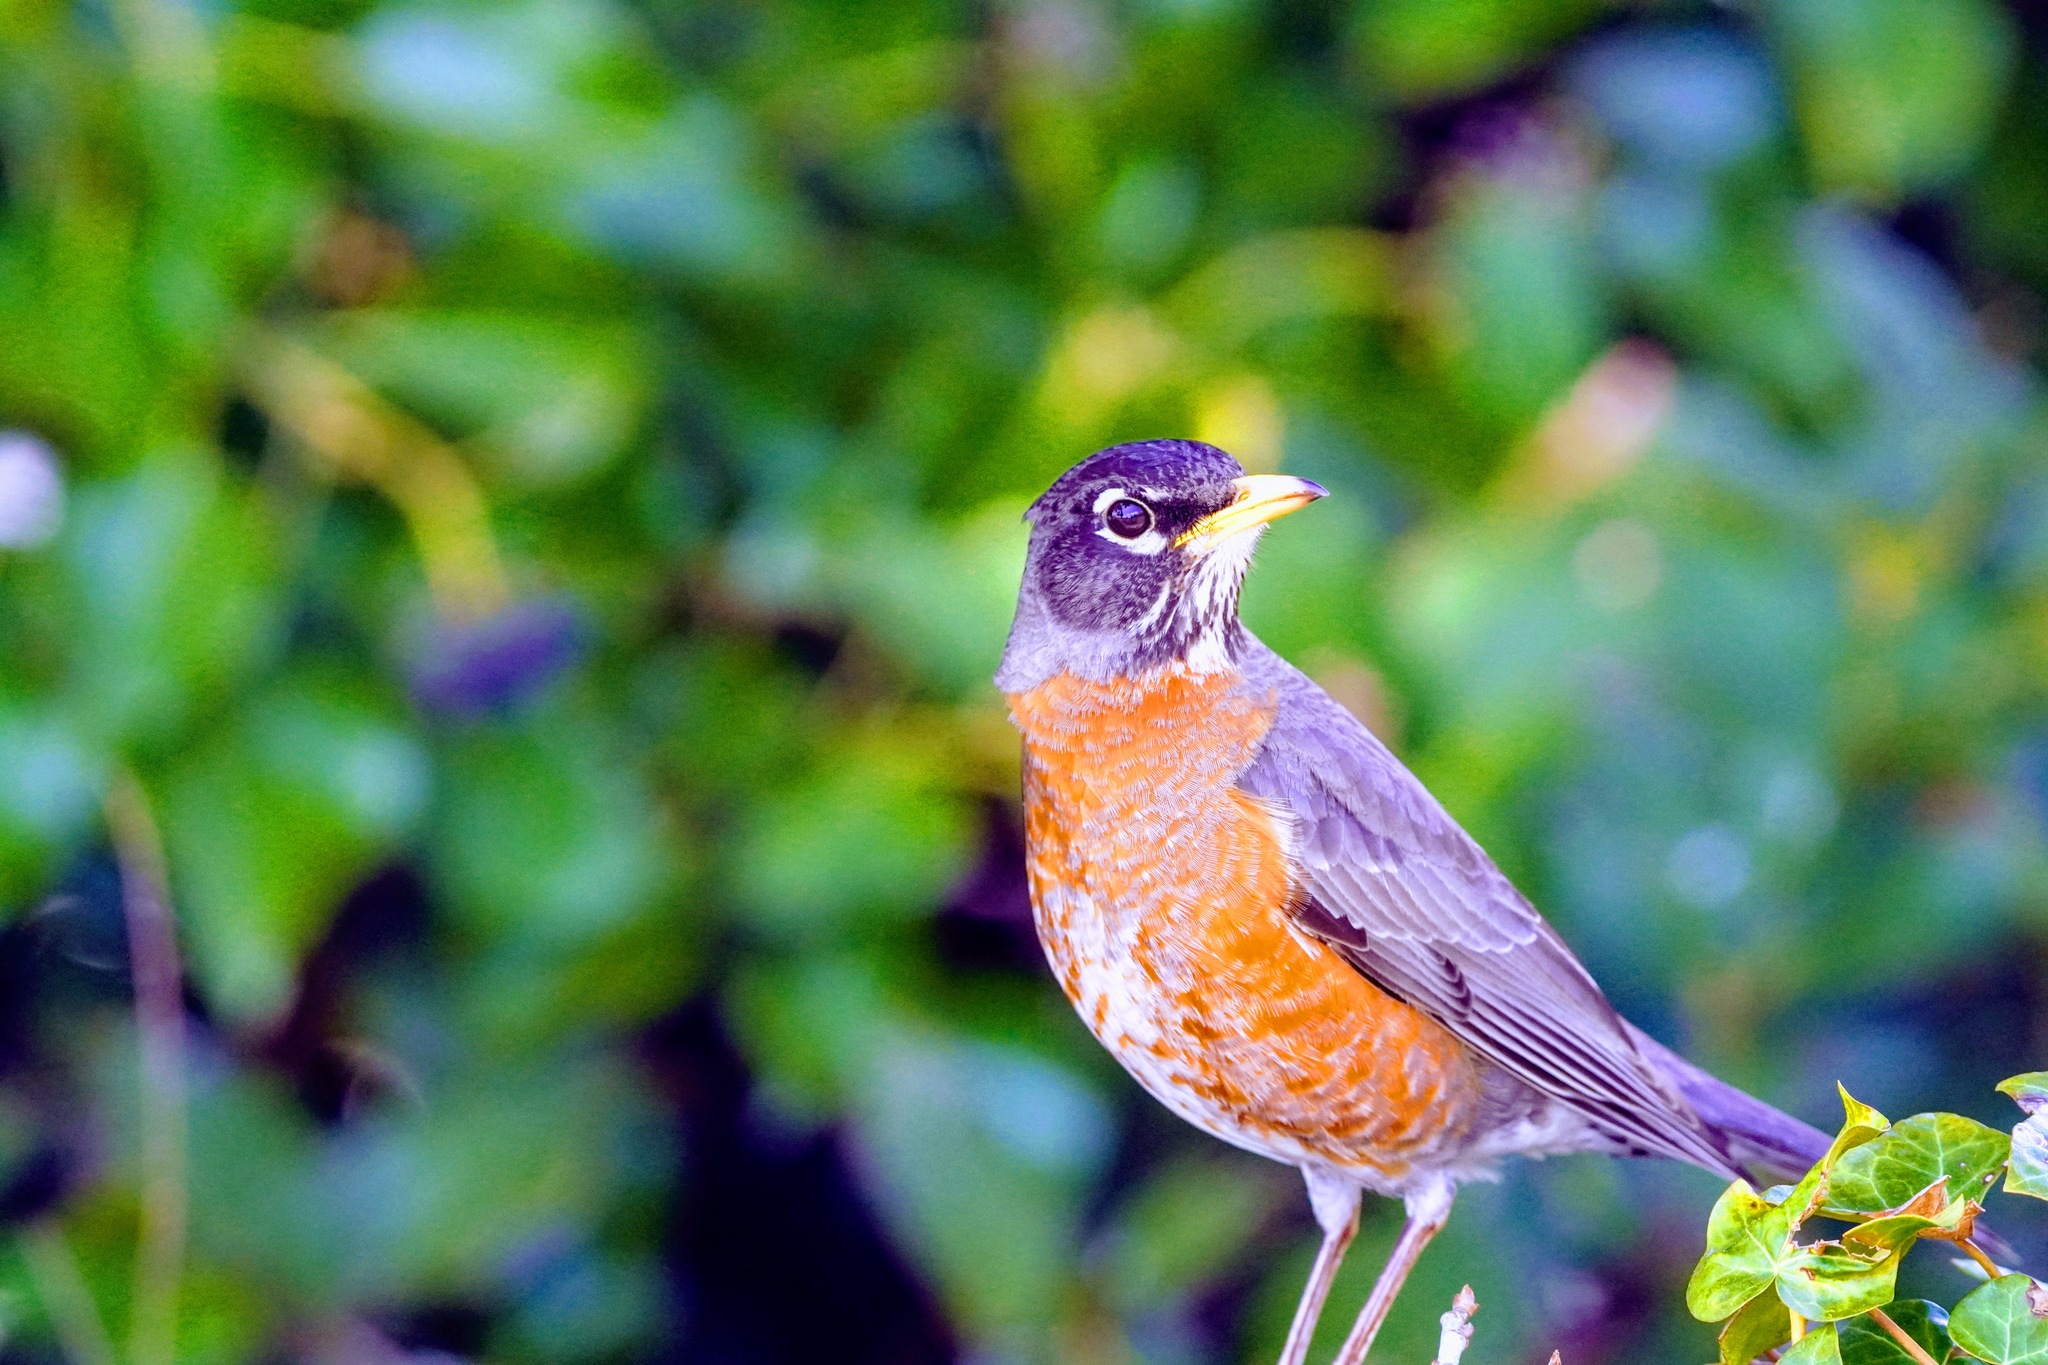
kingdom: Animalia
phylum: Chordata
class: Aves
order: Passeriformes
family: Turdidae
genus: Turdus
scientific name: Turdus migratorius
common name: American robin
